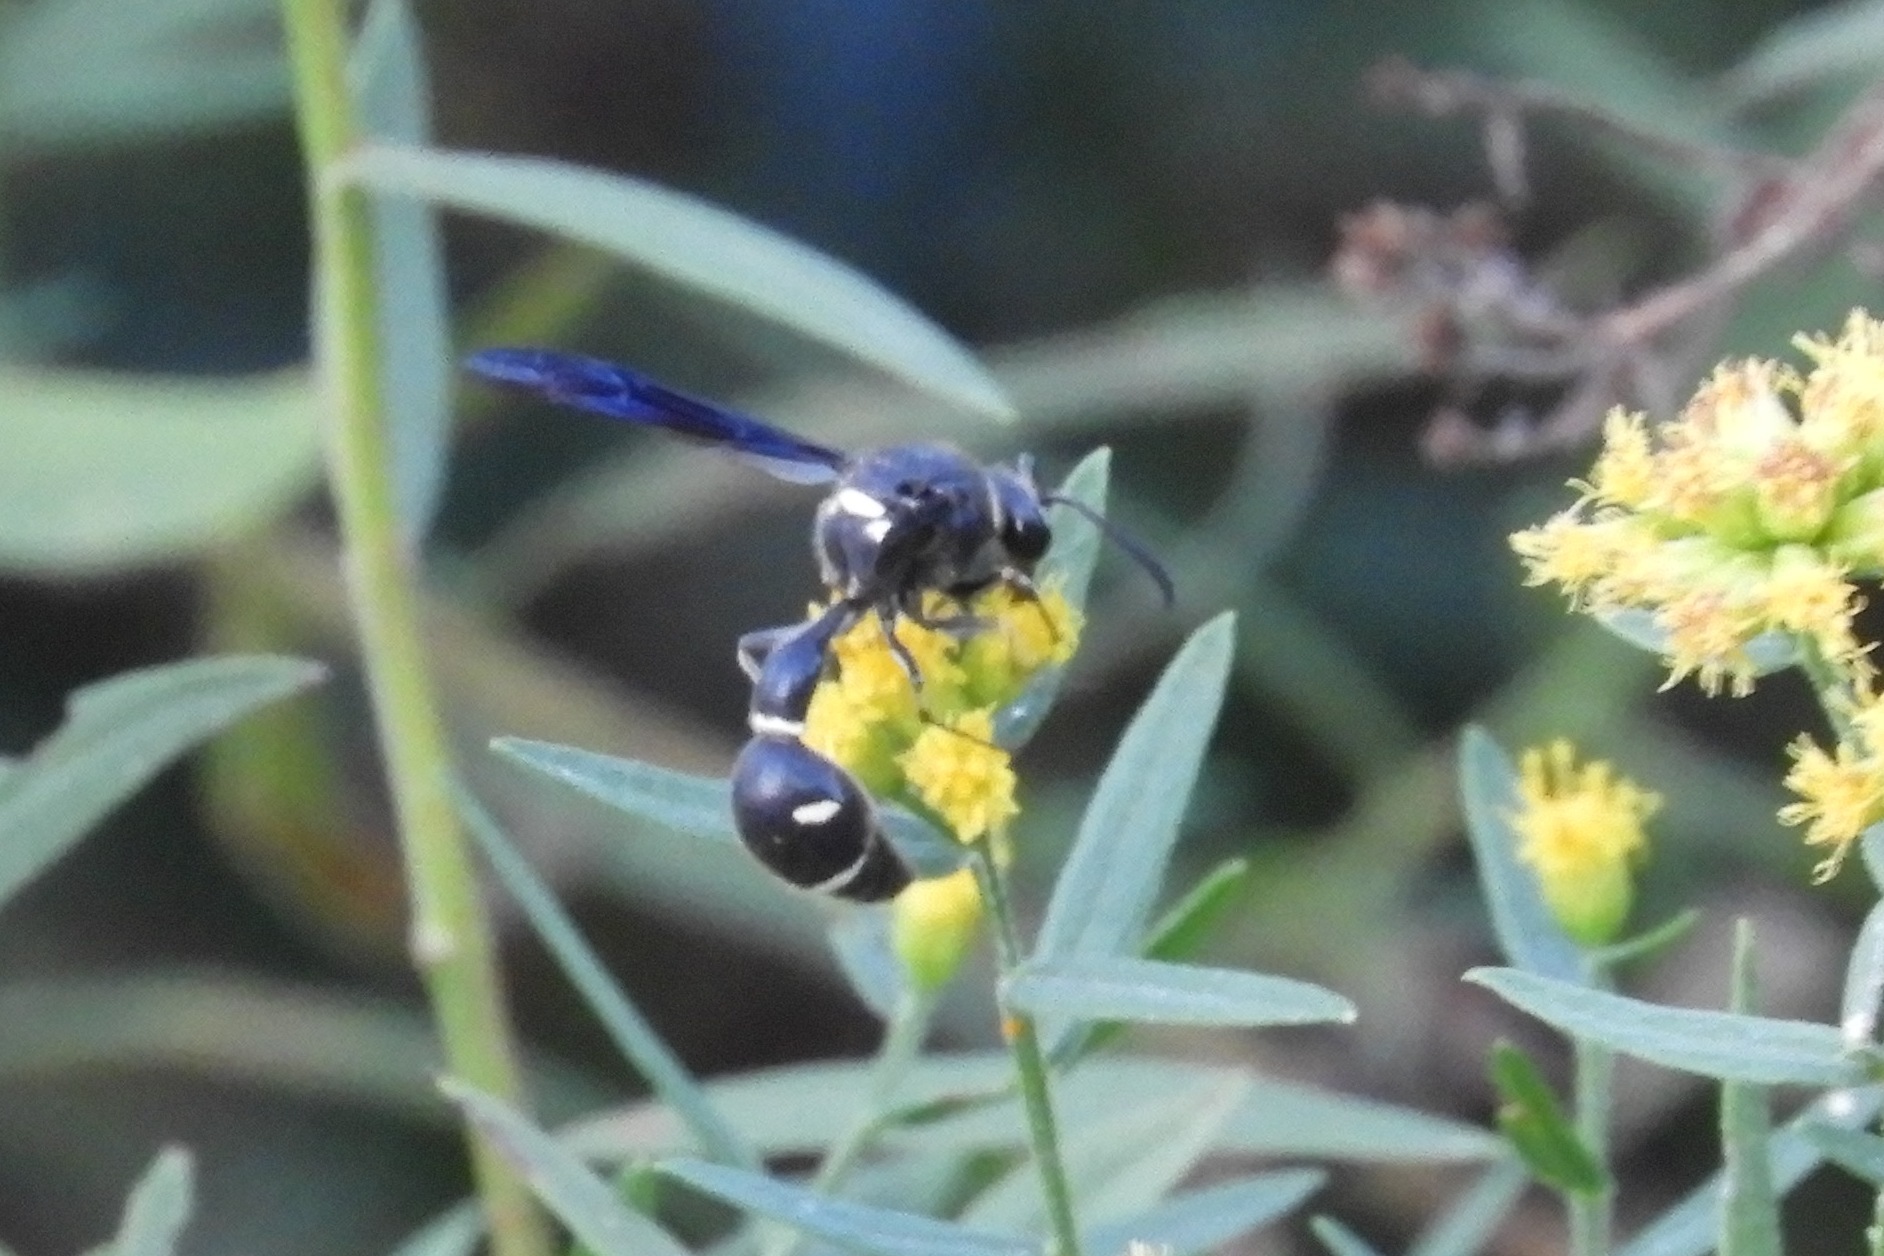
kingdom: Animalia
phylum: Arthropoda
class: Insecta
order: Hymenoptera
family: Vespidae
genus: Eumenes
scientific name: Eumenes fraternus
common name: Fraternal potter wasp
